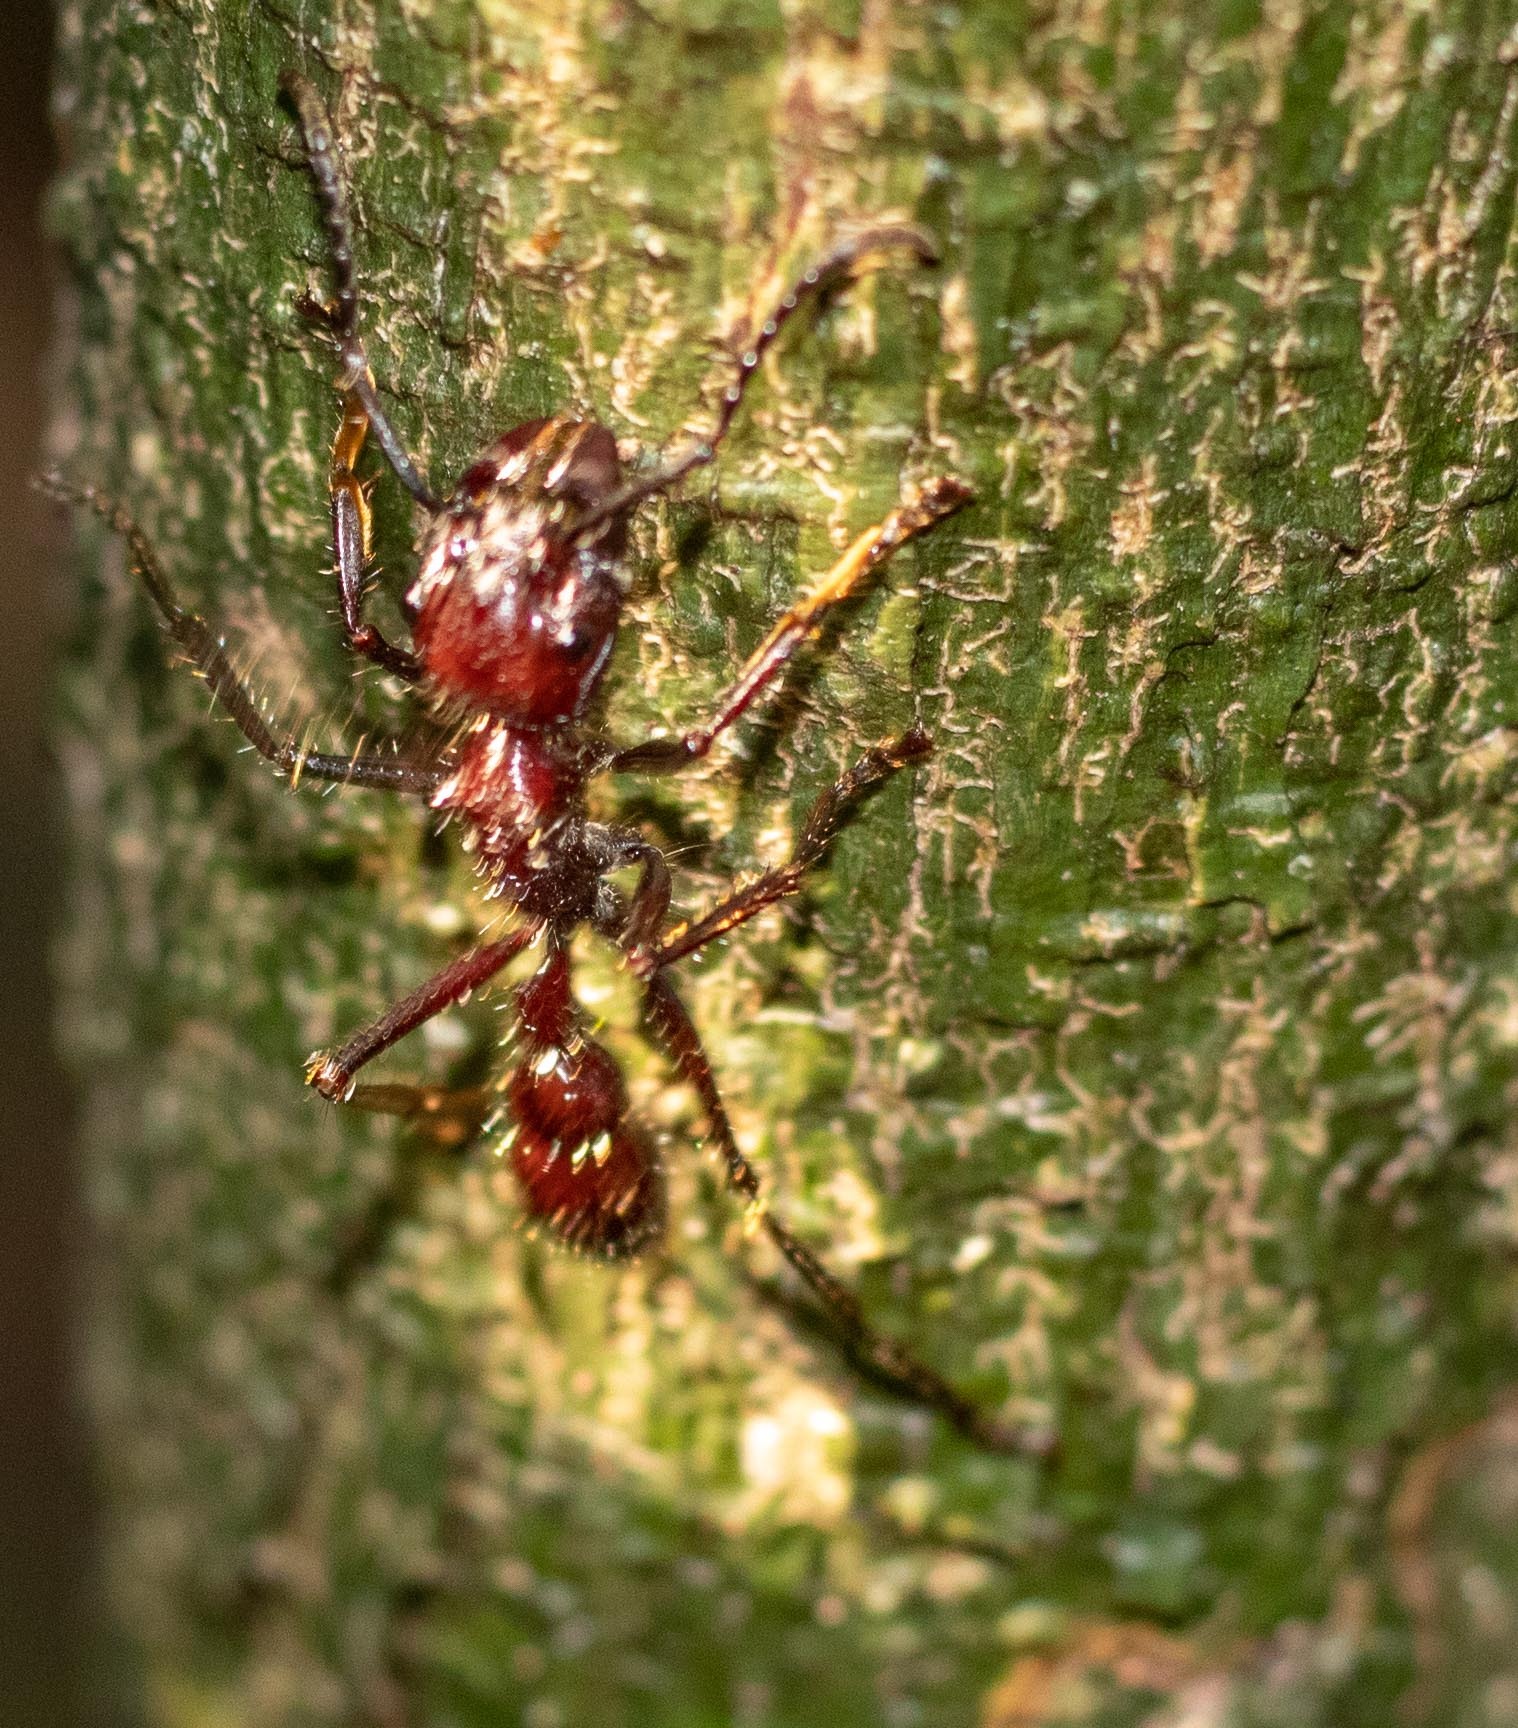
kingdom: Animalia
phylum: Arthropoda
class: Insecta
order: Hymenoptera
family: Formicidae
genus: Paraponera
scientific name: Paraponera clavata
